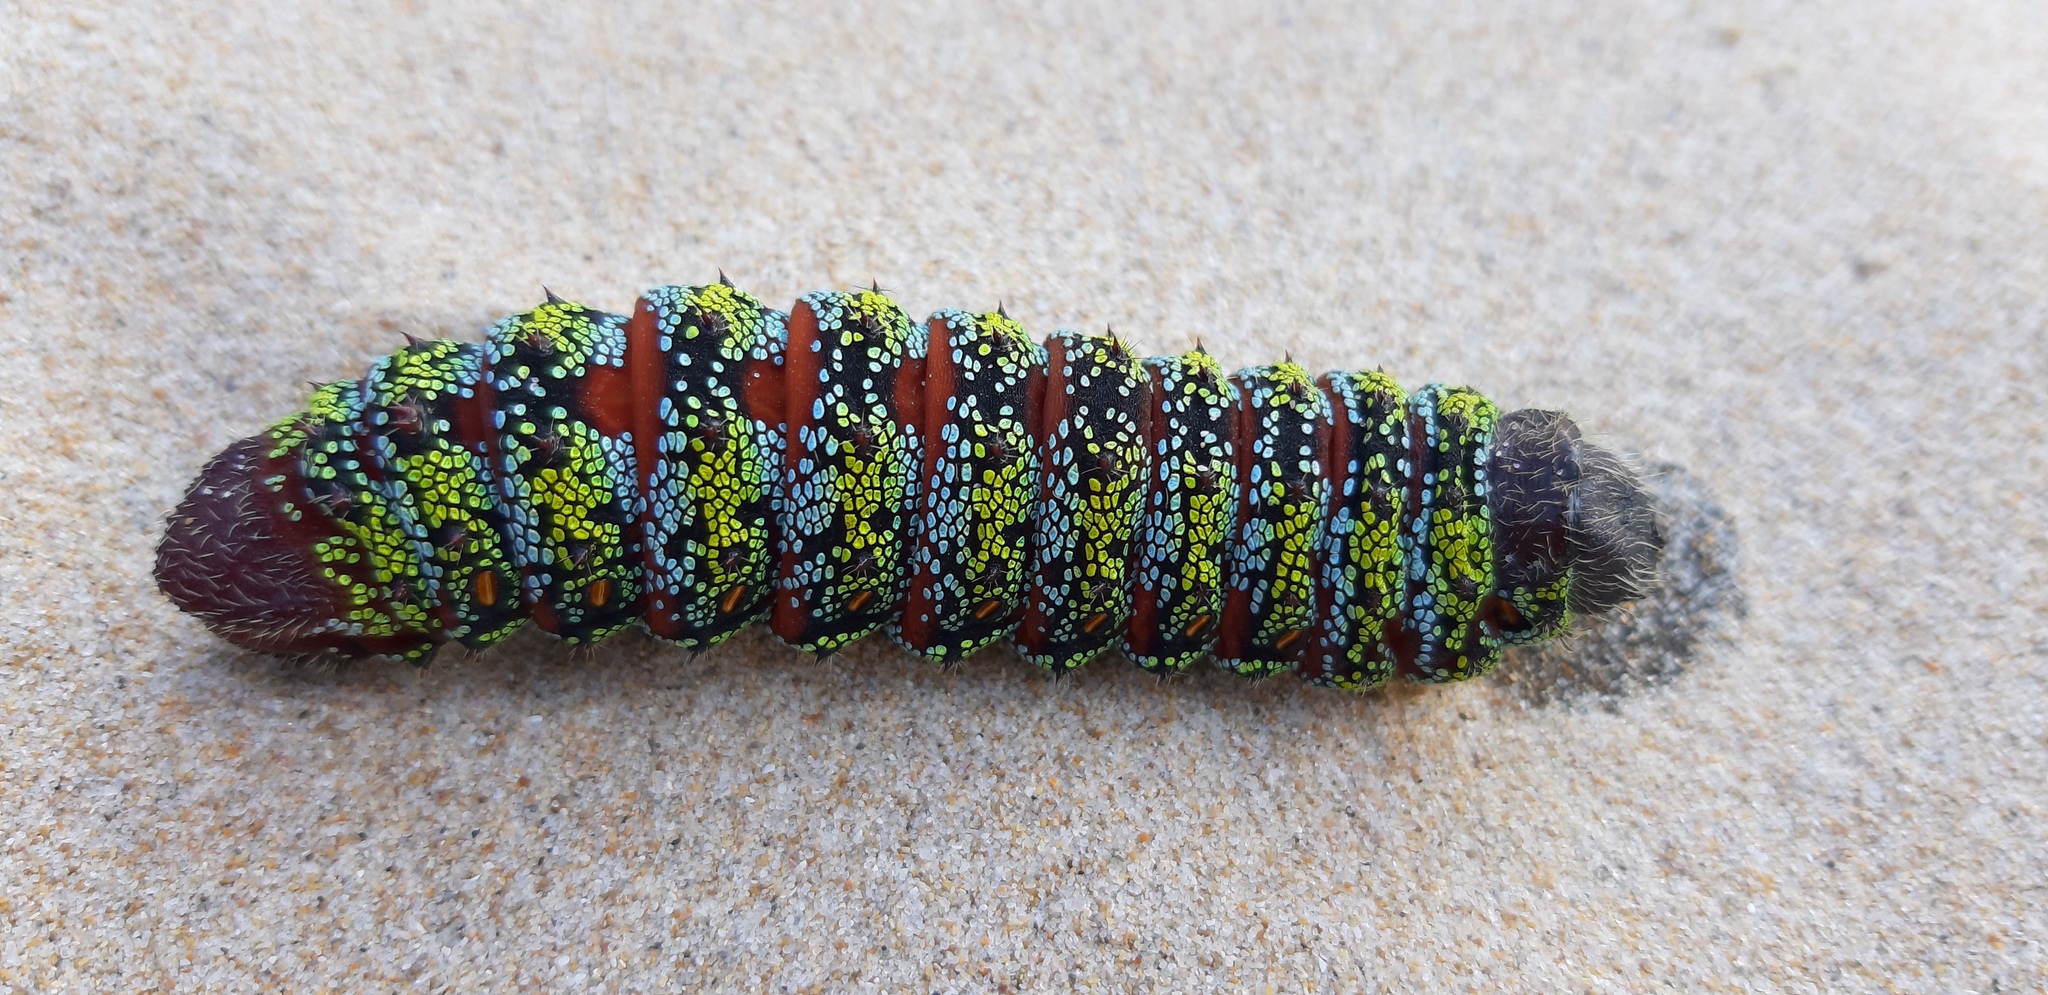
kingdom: Animalia
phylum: Arthropoda
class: Insecta
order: Lepidoptera
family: Saturniidae
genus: Nudaurelia
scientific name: Nudaurelia cytherea
